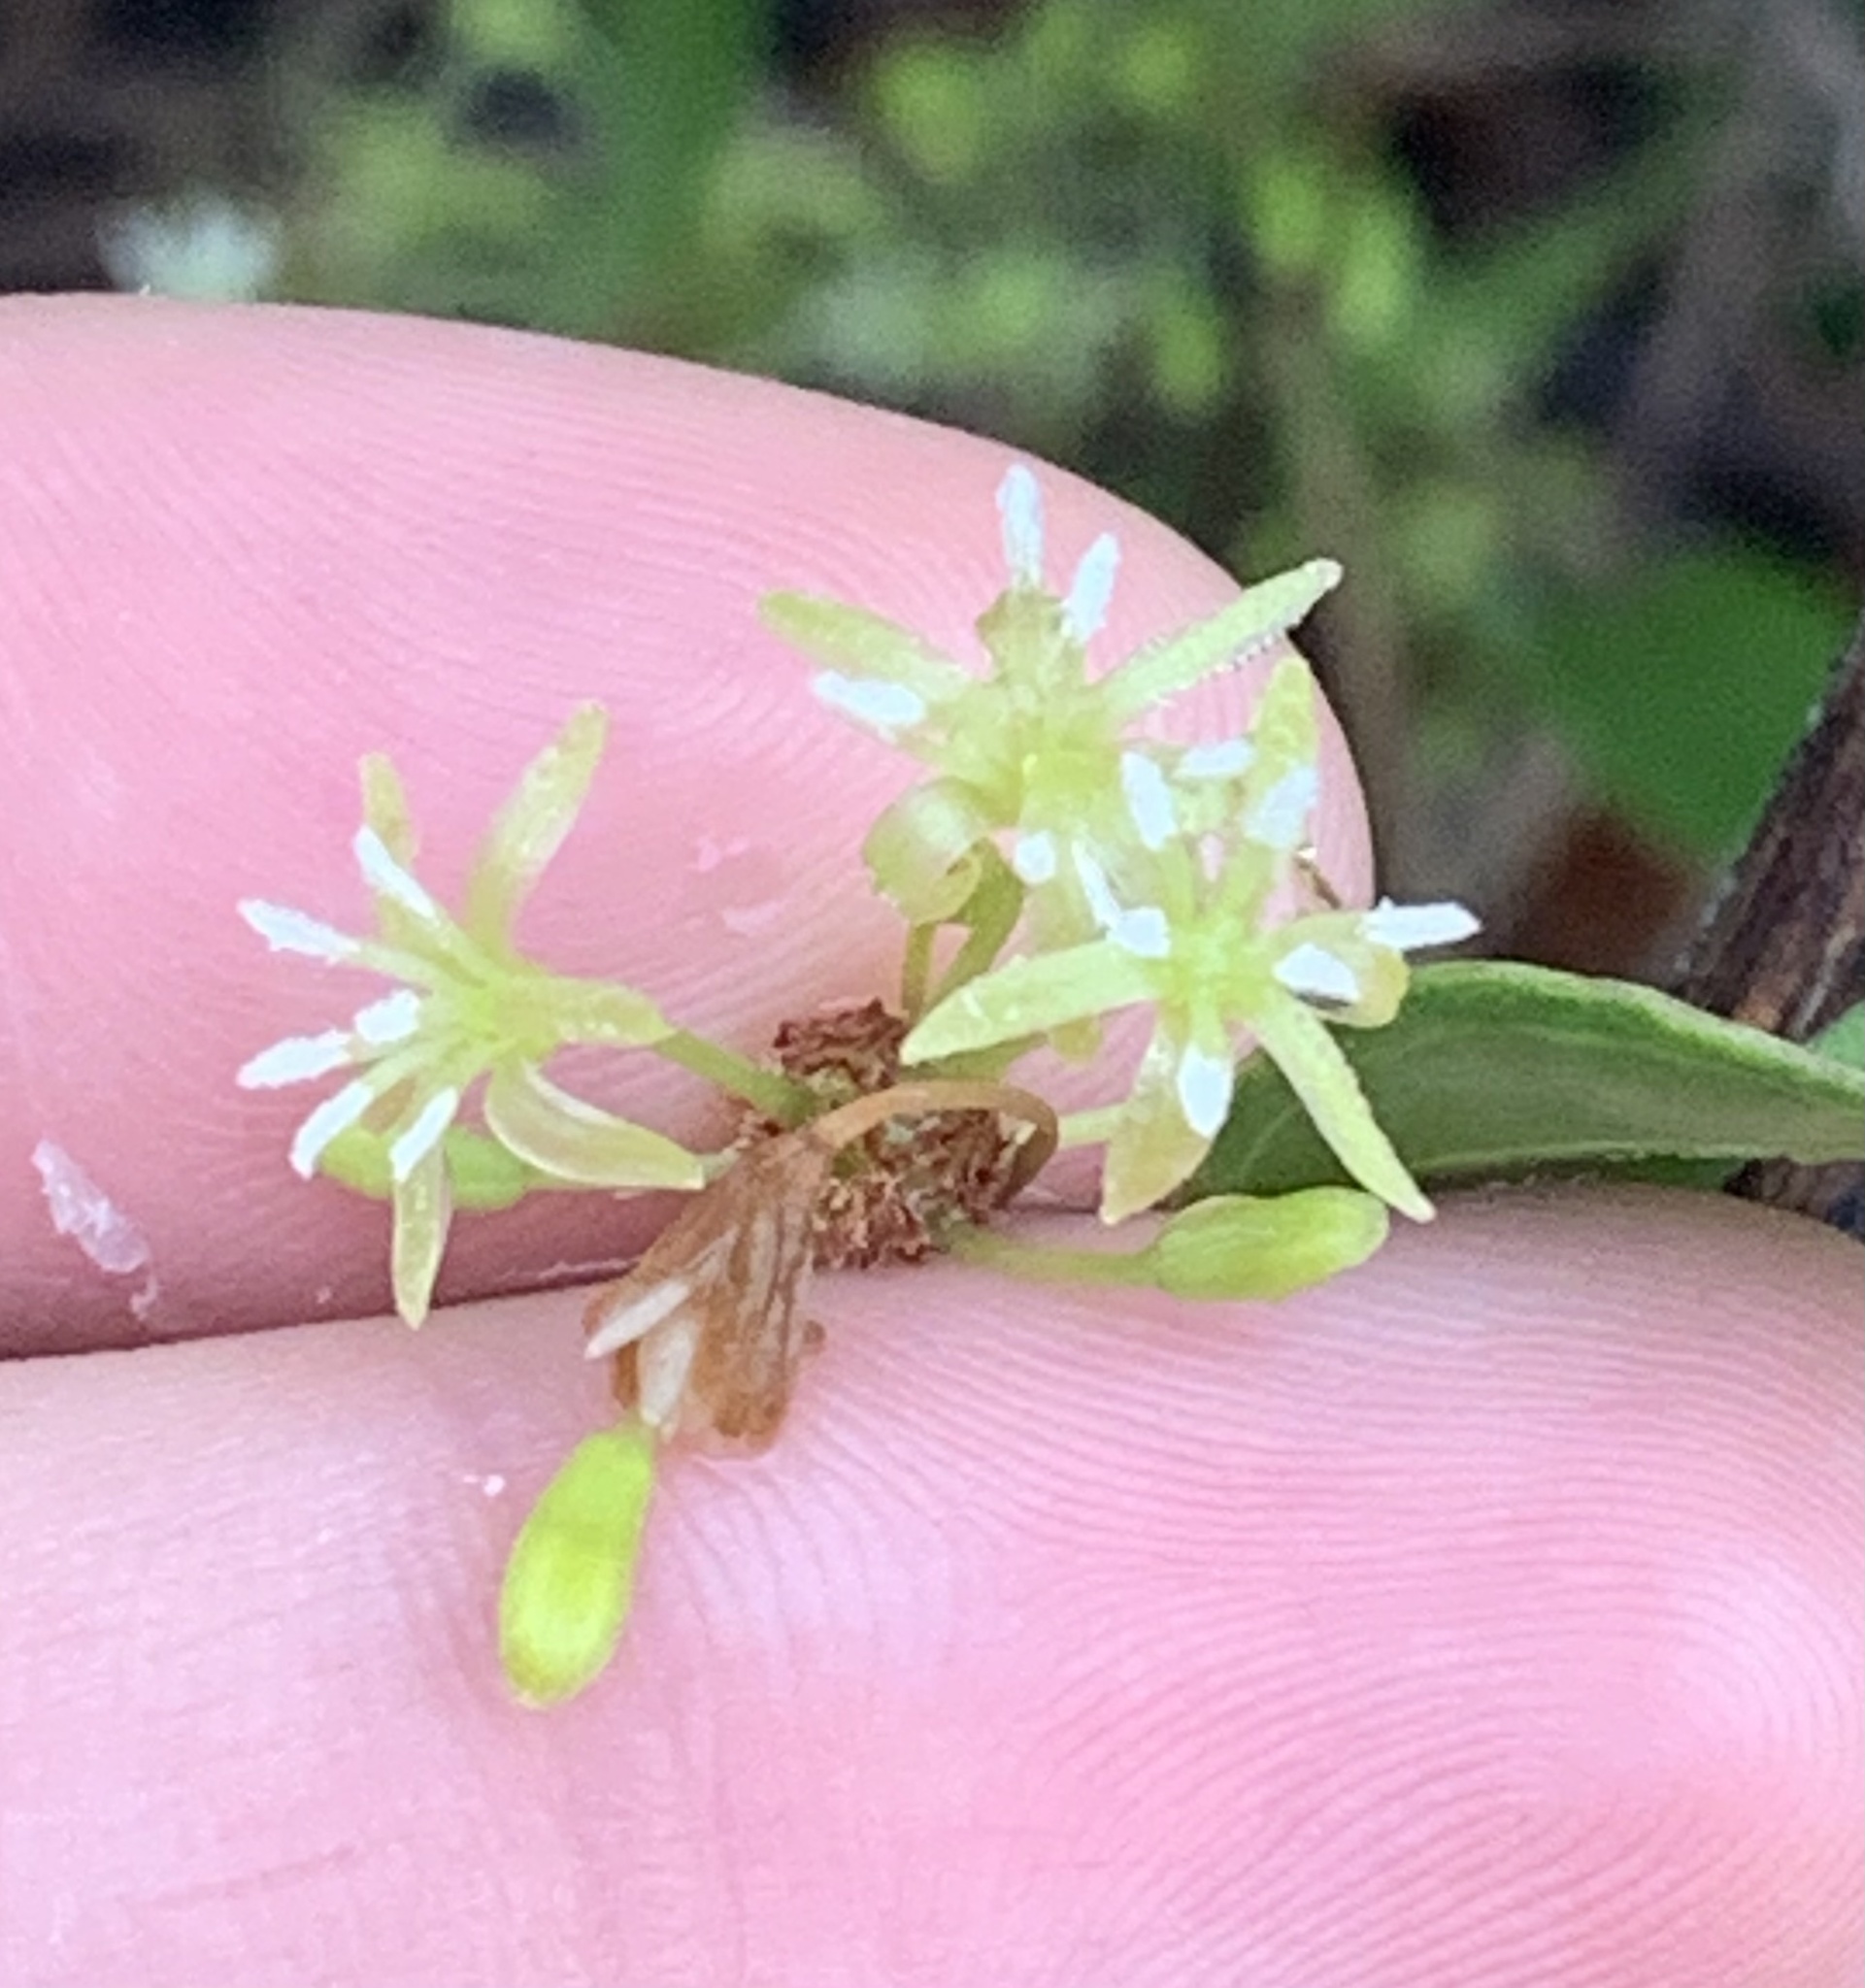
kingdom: Plantae
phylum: Tracheophyta
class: Liliopsida
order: Liliales
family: Smilacaceae
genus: Smilax
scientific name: Smilax auriculata
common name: Wild bamboo
